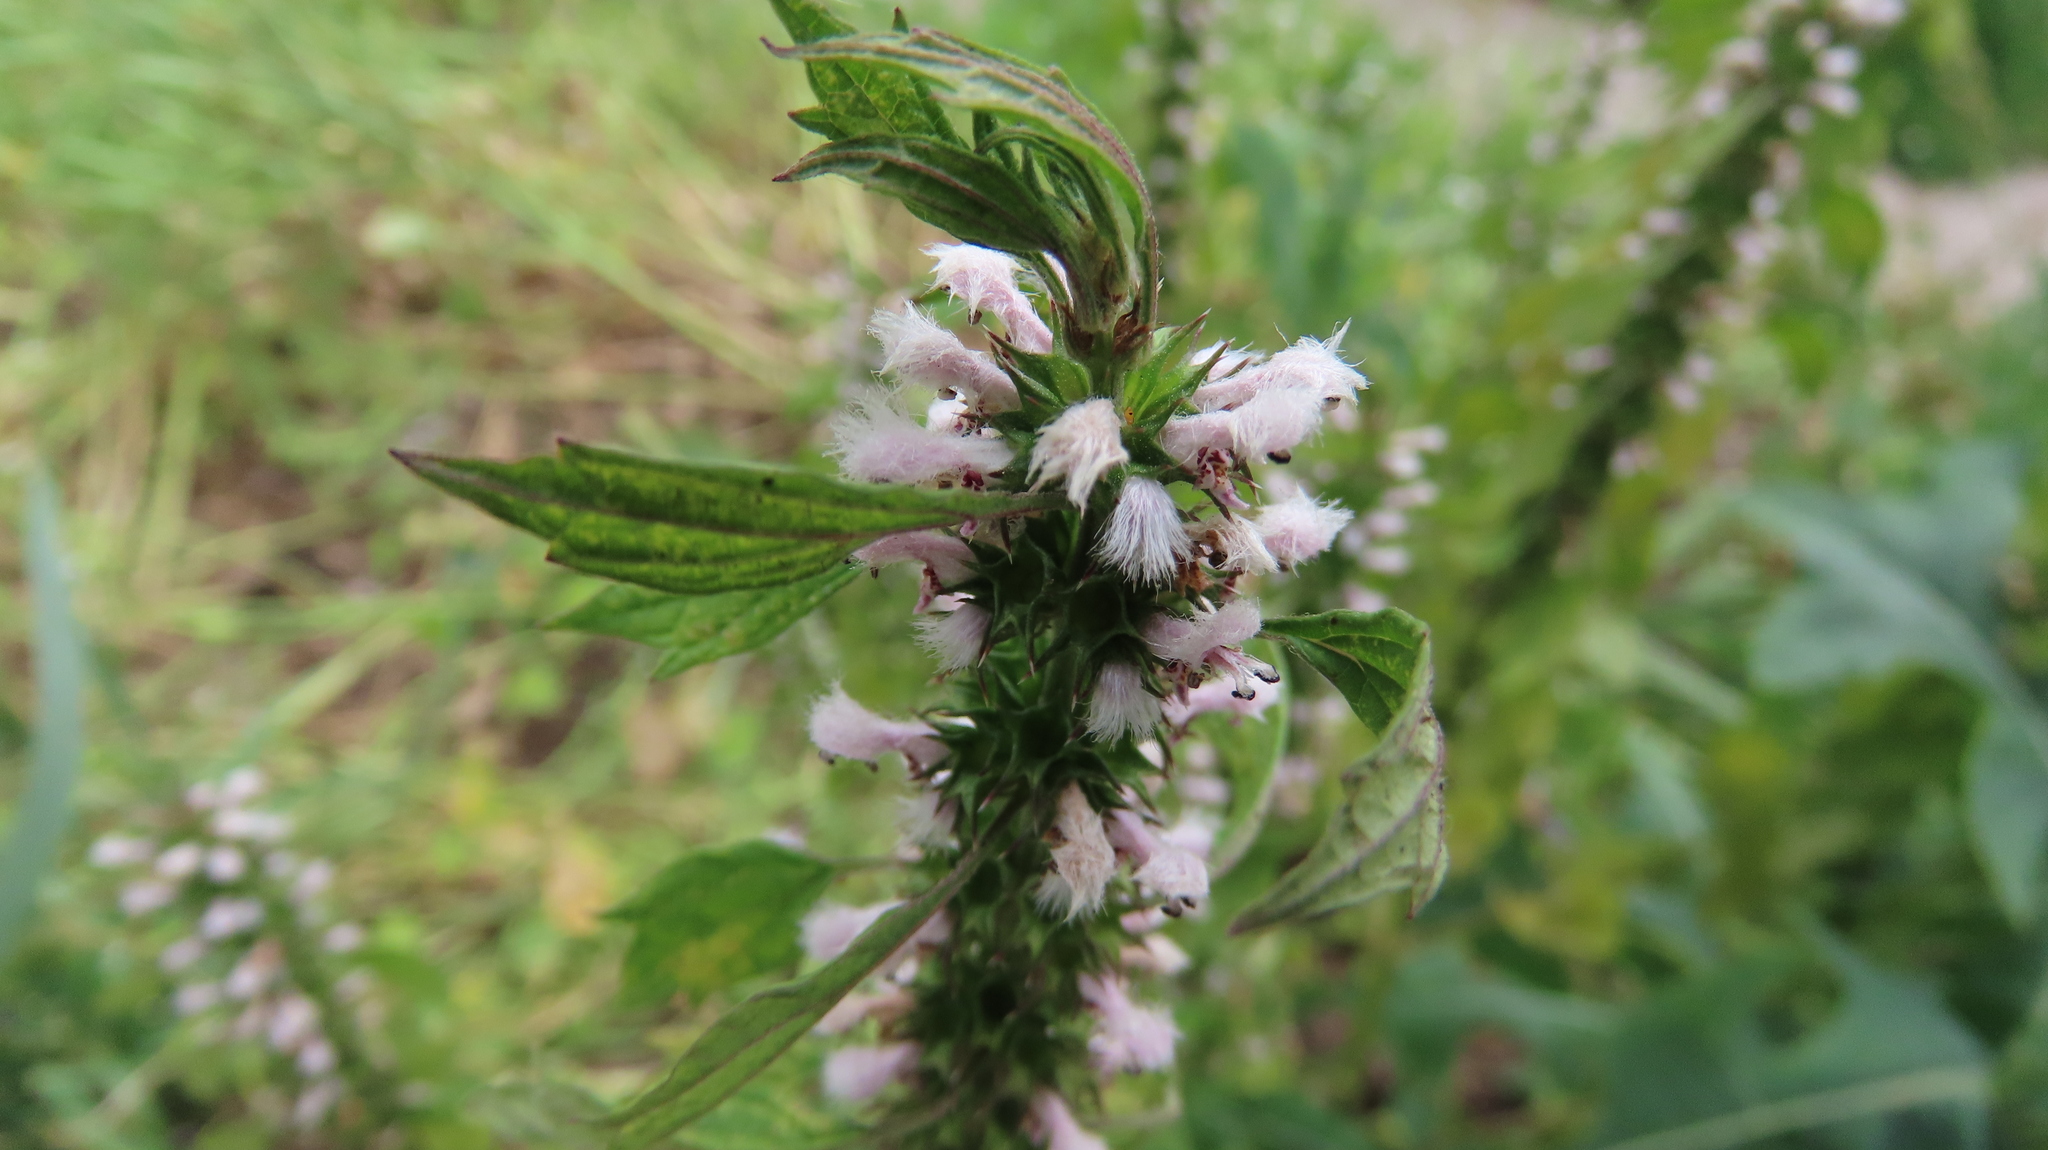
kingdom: Plantae
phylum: Tracheophyta
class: Magnoliopsida
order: Lamiales
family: Lamiaceae
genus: Leonurus
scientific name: Leonurus cardiaca
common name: Motherwort
